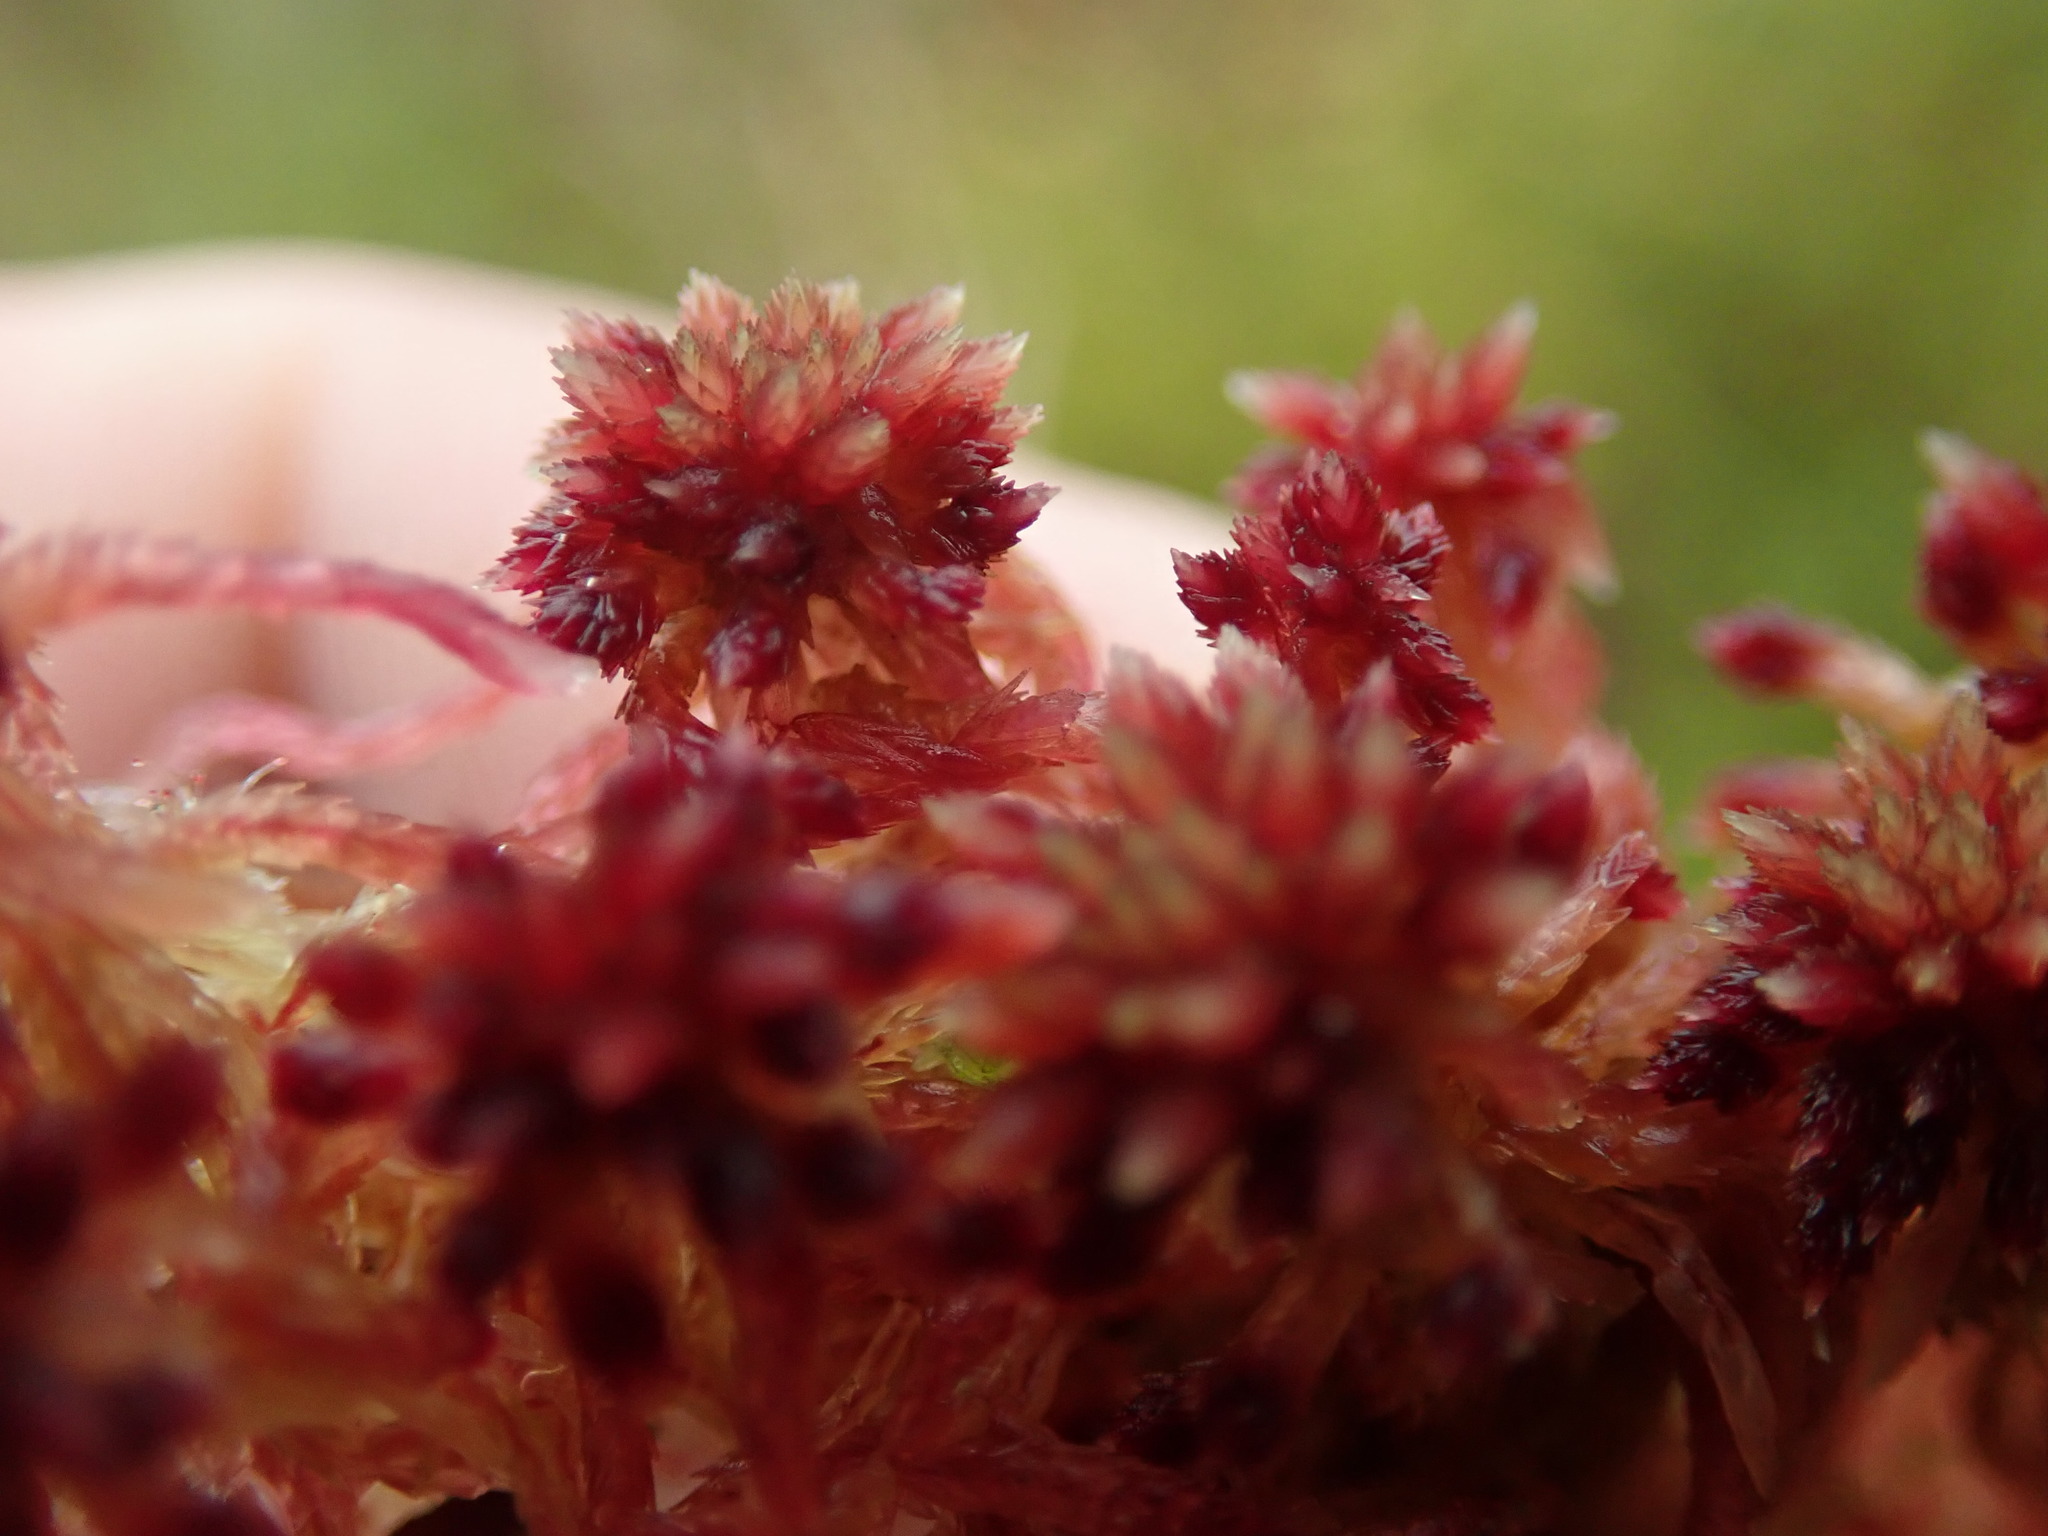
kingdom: Plantae
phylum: Bryophyta
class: Sphagnopsida
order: Sphagnales
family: Sphagnaceae
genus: Sphagnum
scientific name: Sphagnum capillifolium
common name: Small red peat moss
